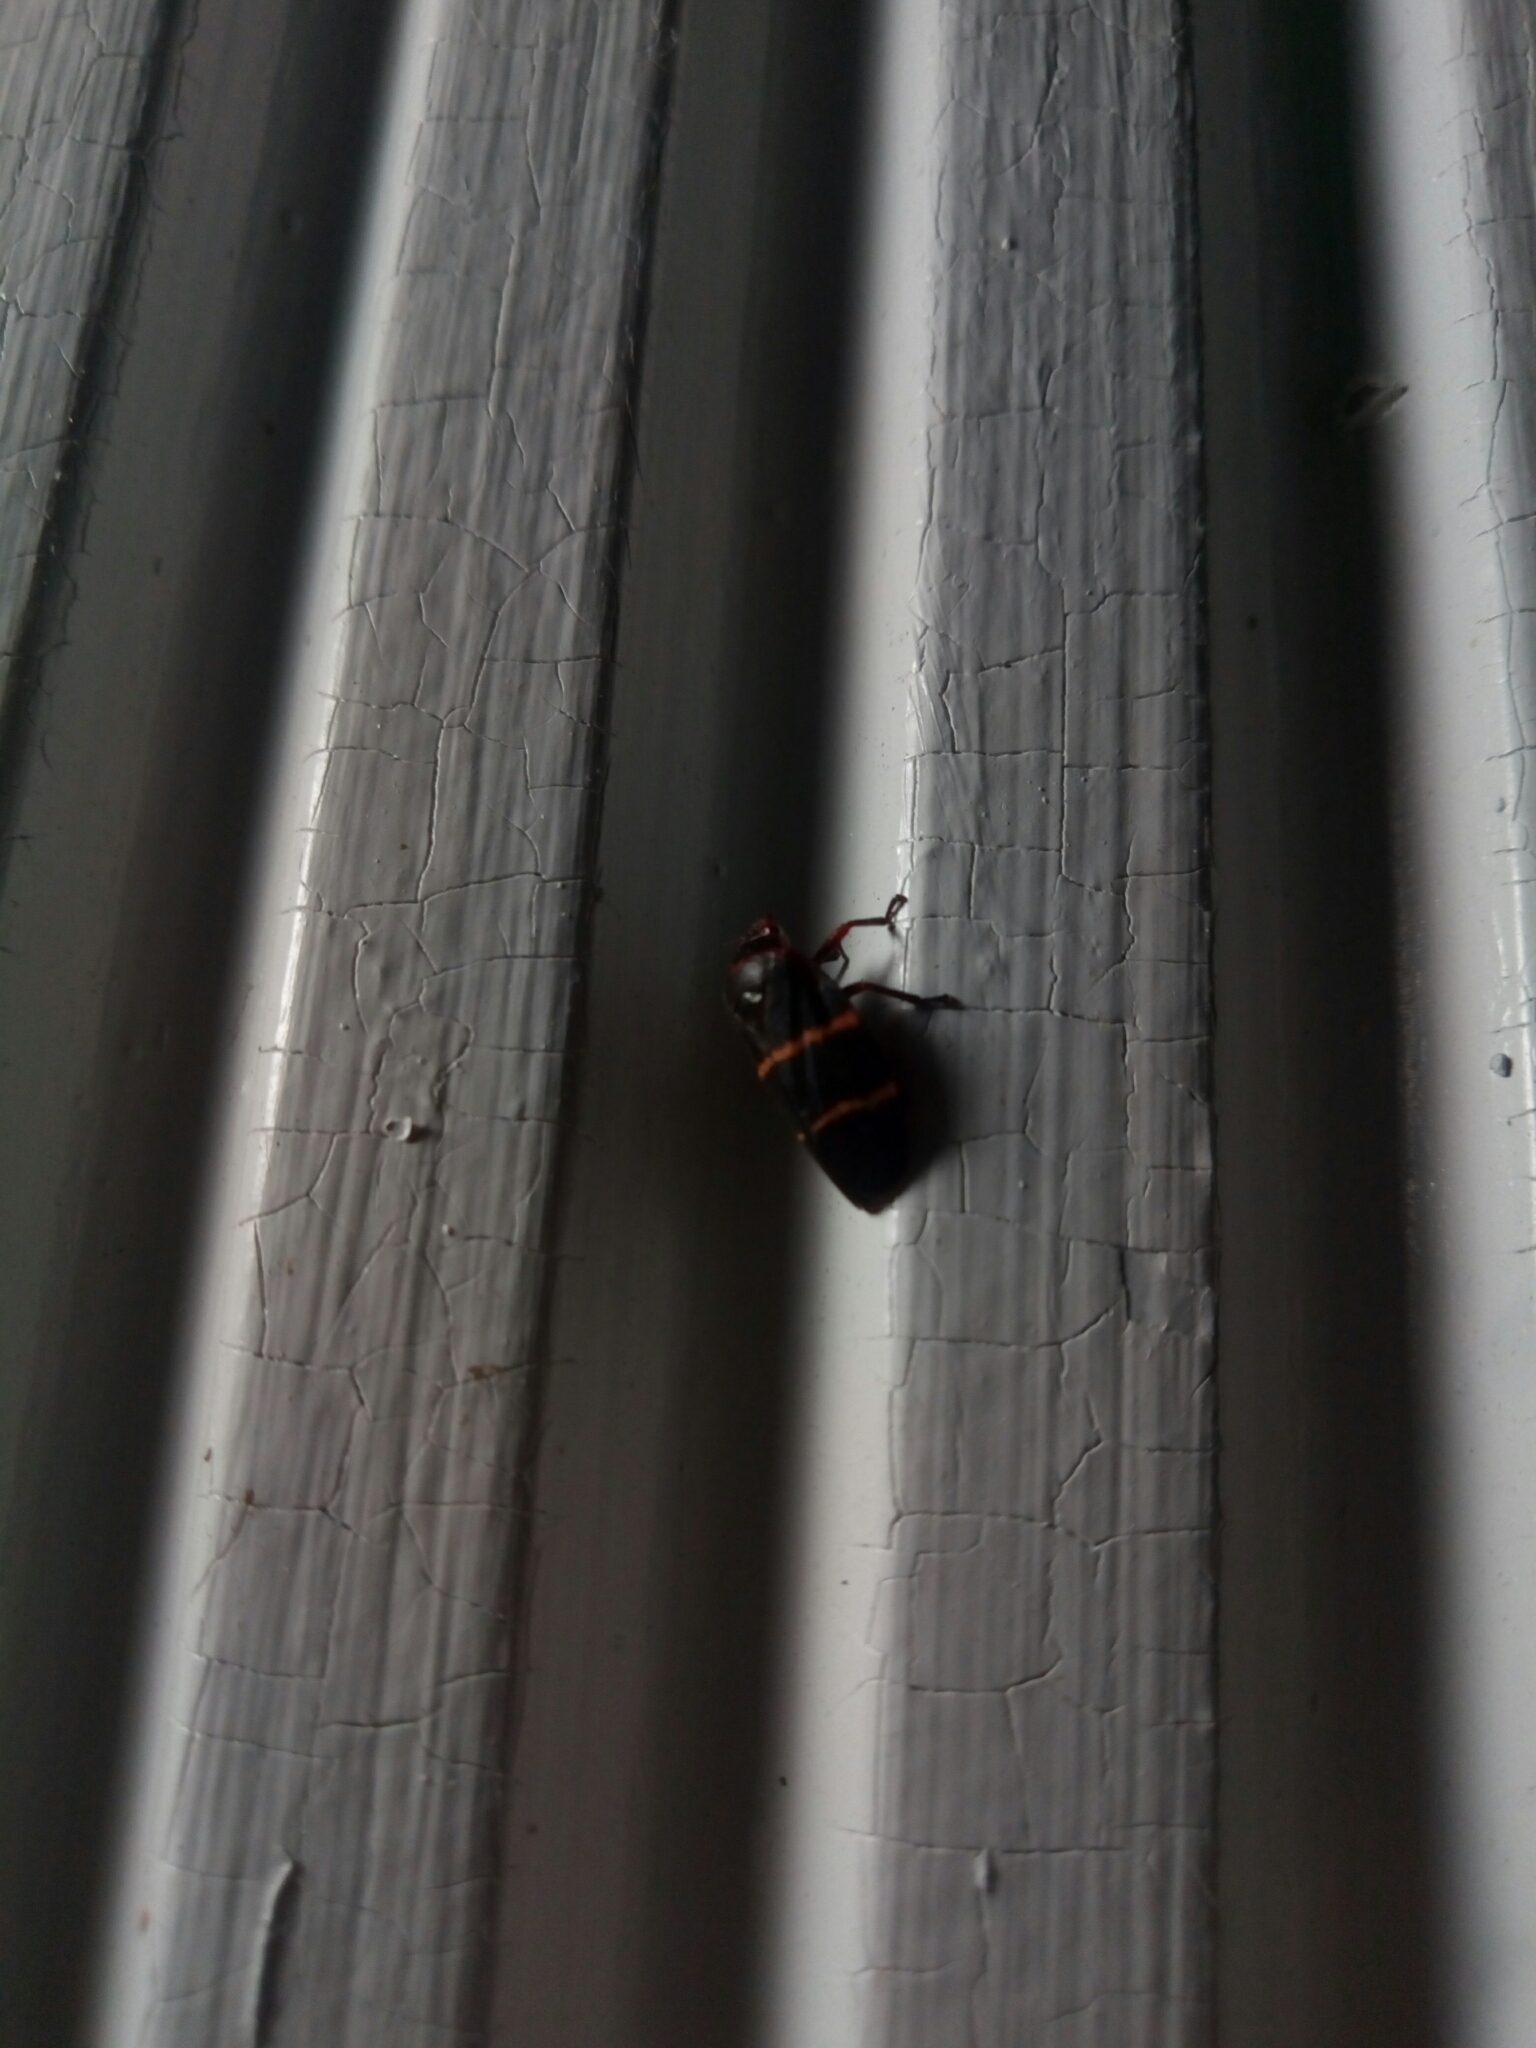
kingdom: Animalia
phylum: Arthropoda
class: Insecta
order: Hemiptera
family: Cercopidae
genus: Prosapia
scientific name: Prosapia bicincta
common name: Twolined spittlebug
